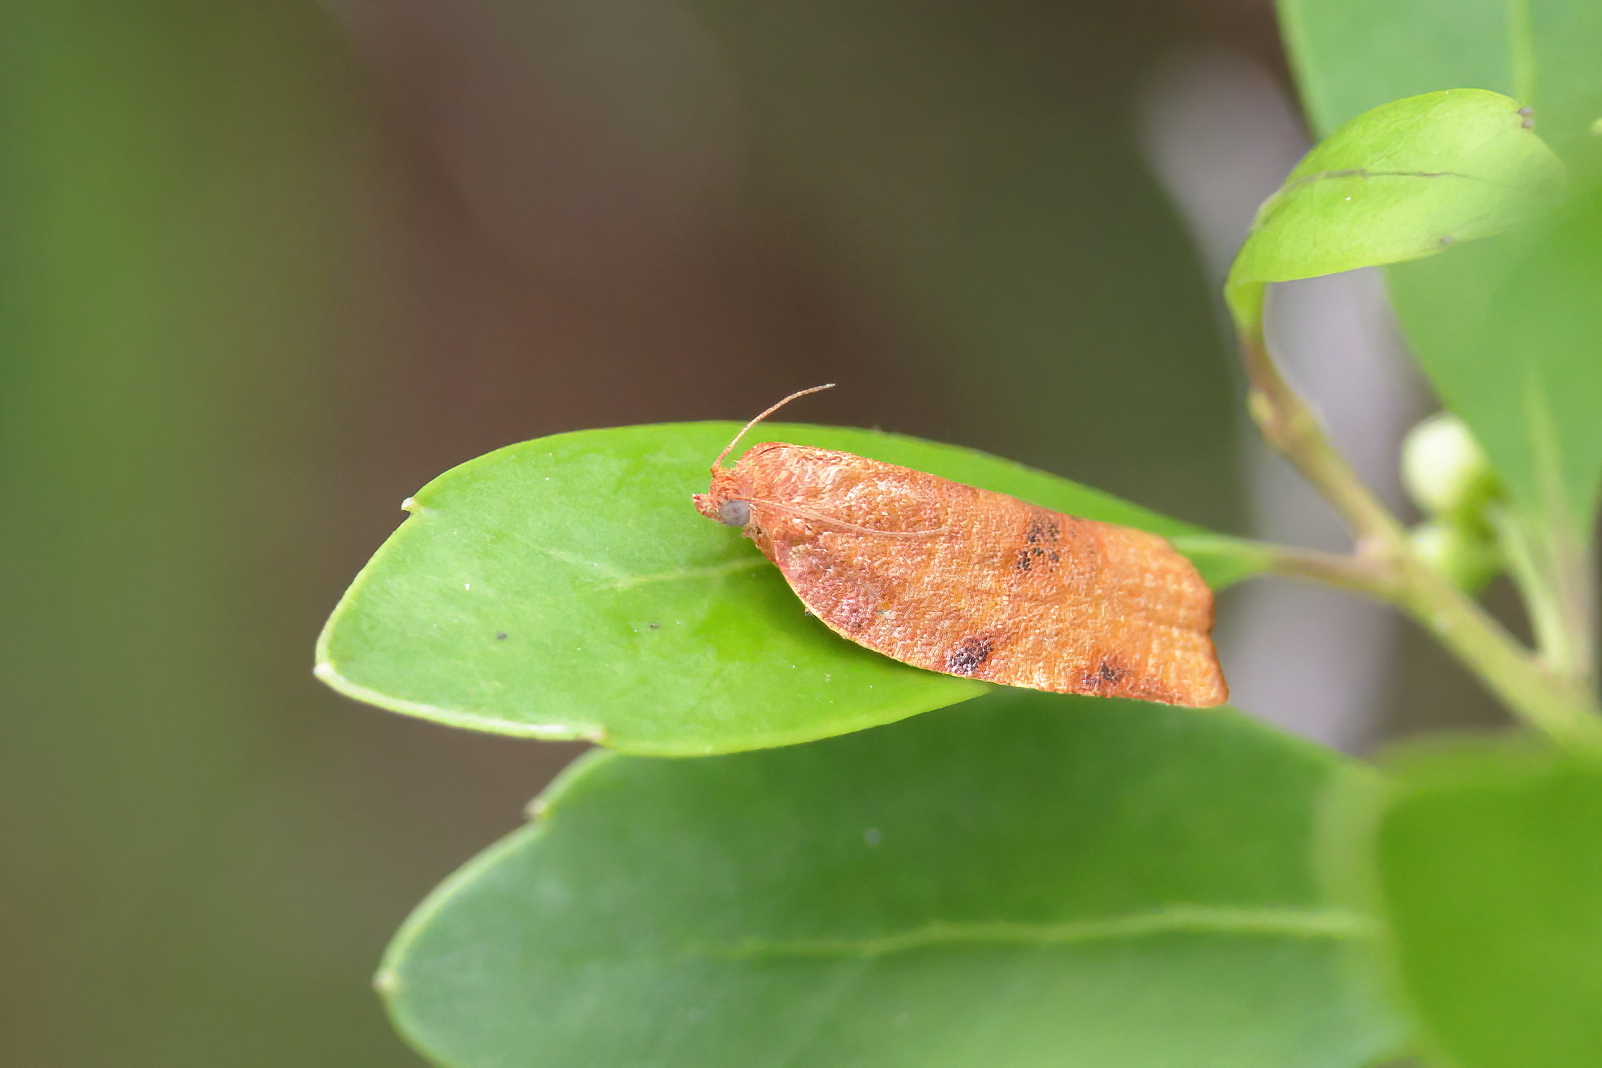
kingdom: Animalia
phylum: Arthropoda
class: Insecta
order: Lepidoptera
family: Tortricidae
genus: Cenopis
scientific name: Cenopis diluticostana
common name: Spring dead-leaf roller moth
